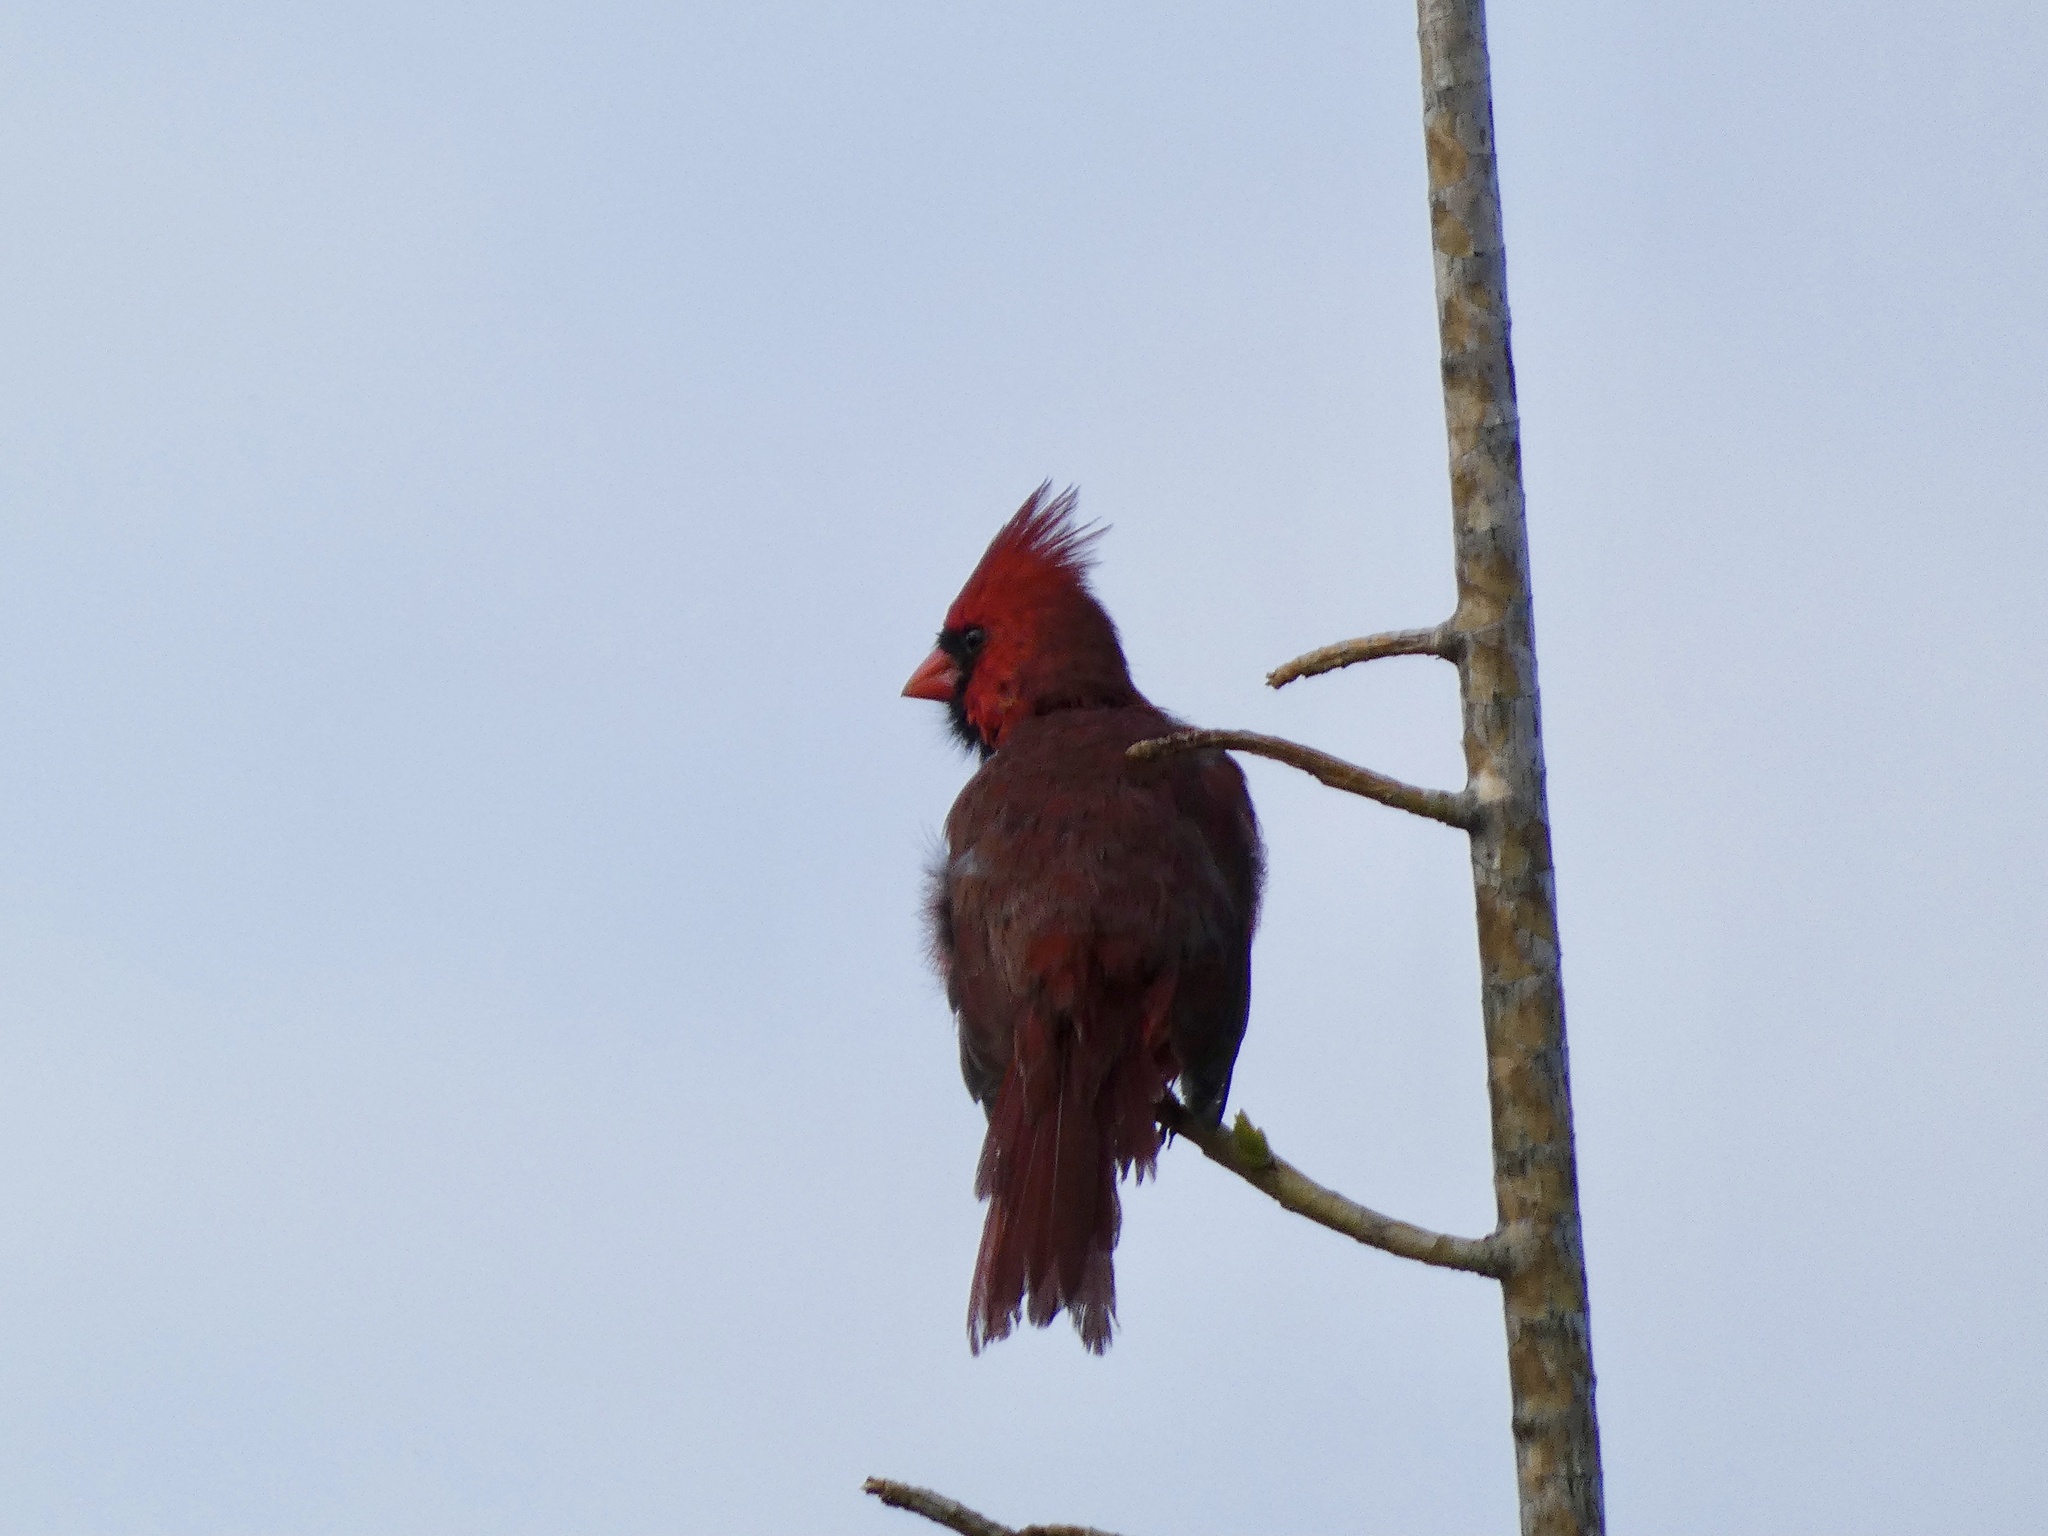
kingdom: Animalia
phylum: Chordata
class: Aves
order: Passeriformes
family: Cardinalidae
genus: Cardinalis
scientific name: Cardinalis cardinalis
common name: Northern cardinal
